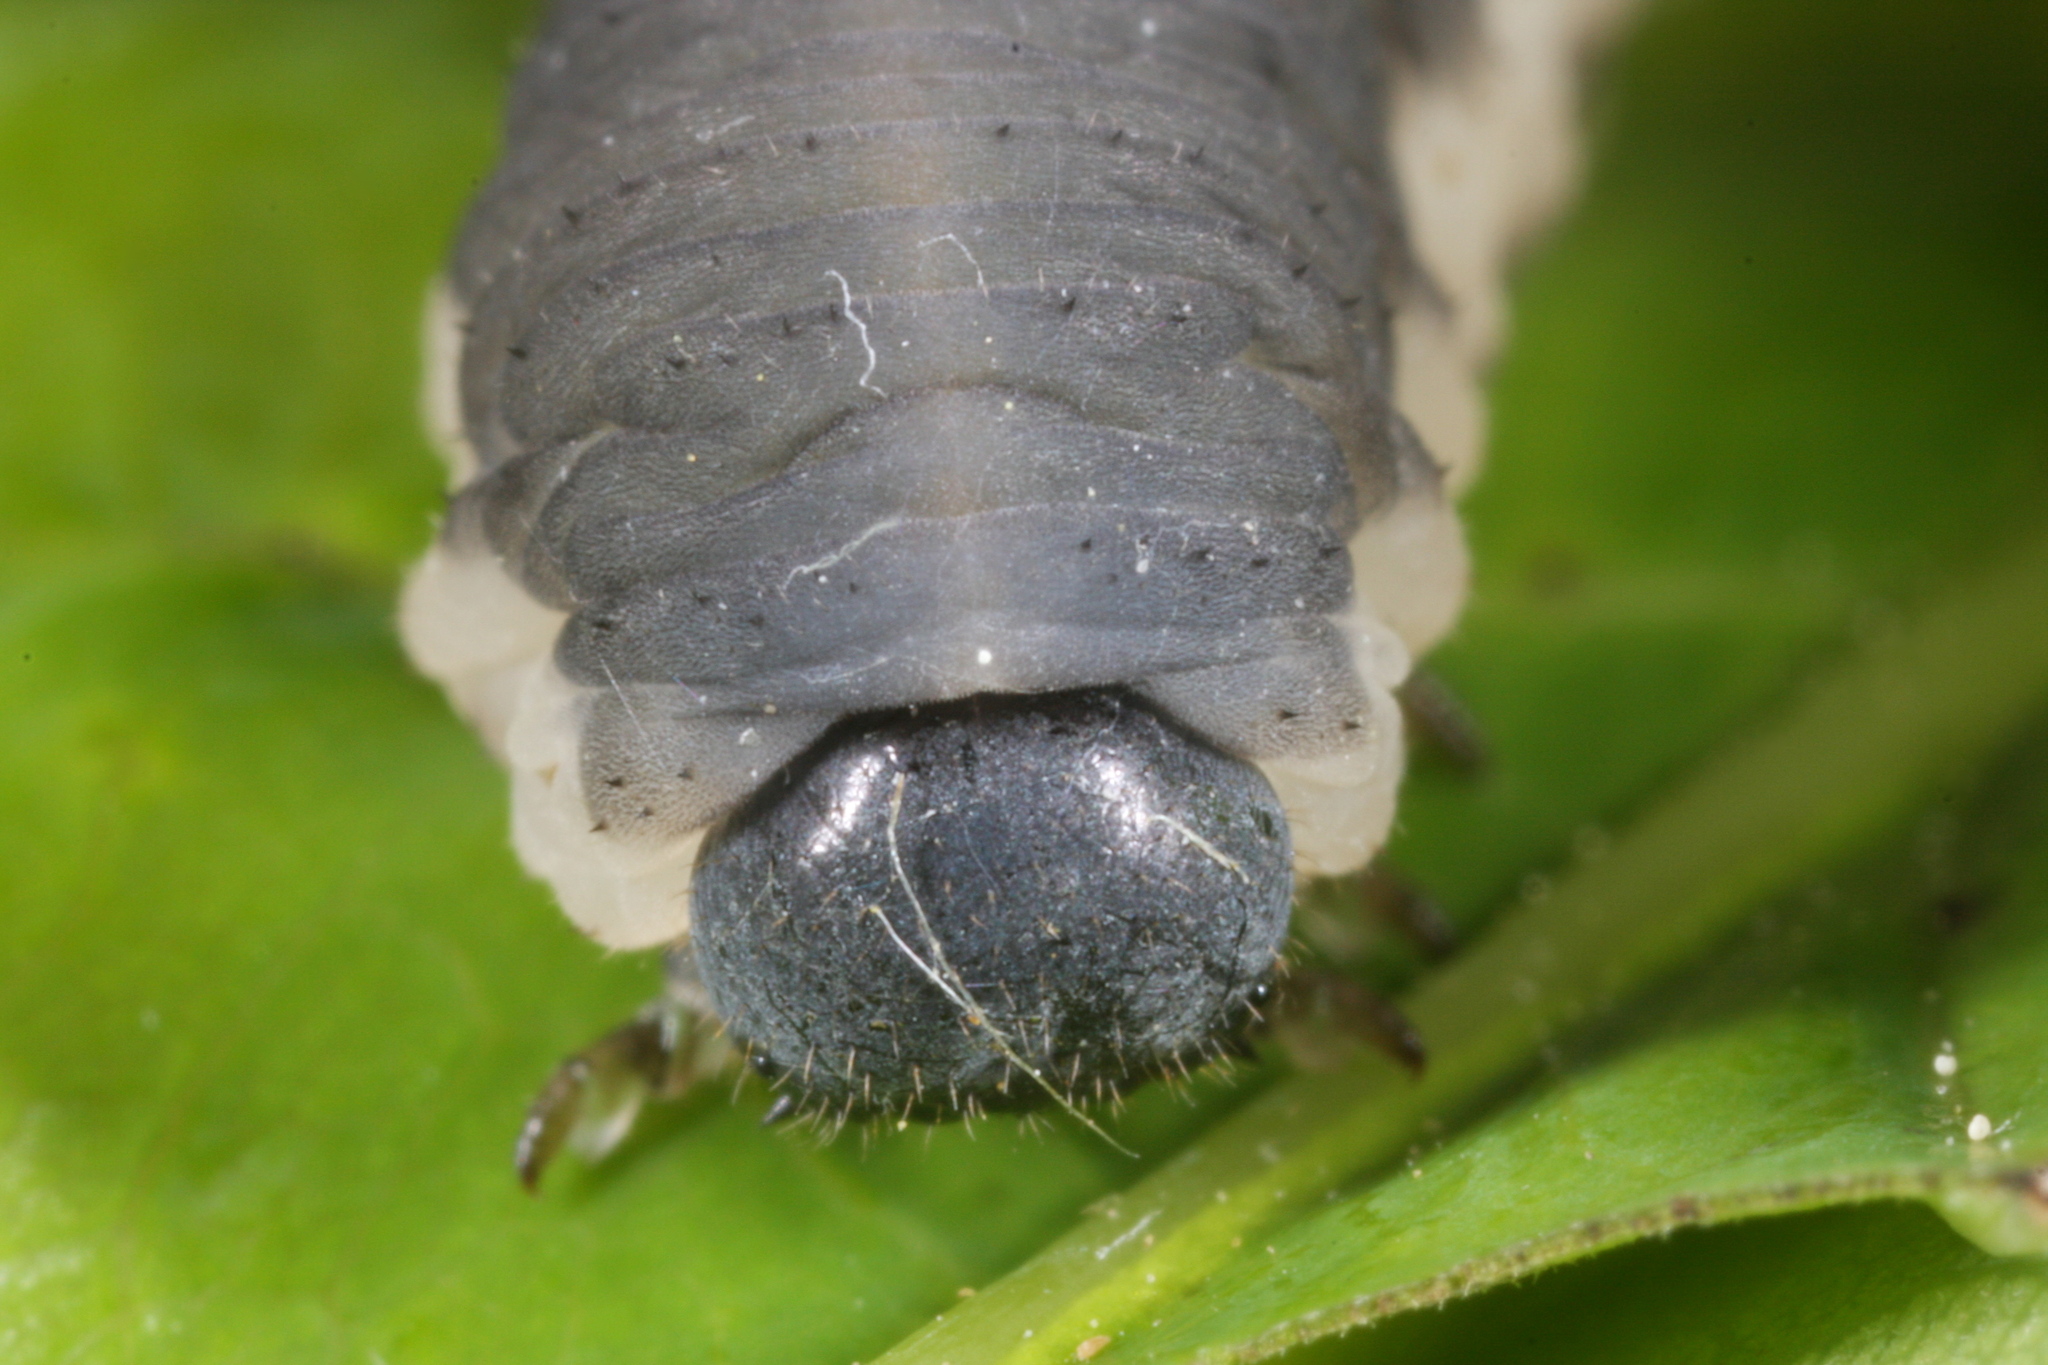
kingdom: Animalia
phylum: Arthropoda
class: Insecta
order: Hymenoptera
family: Tenthredinidae
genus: Apethymus
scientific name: Apethymus serotinus
